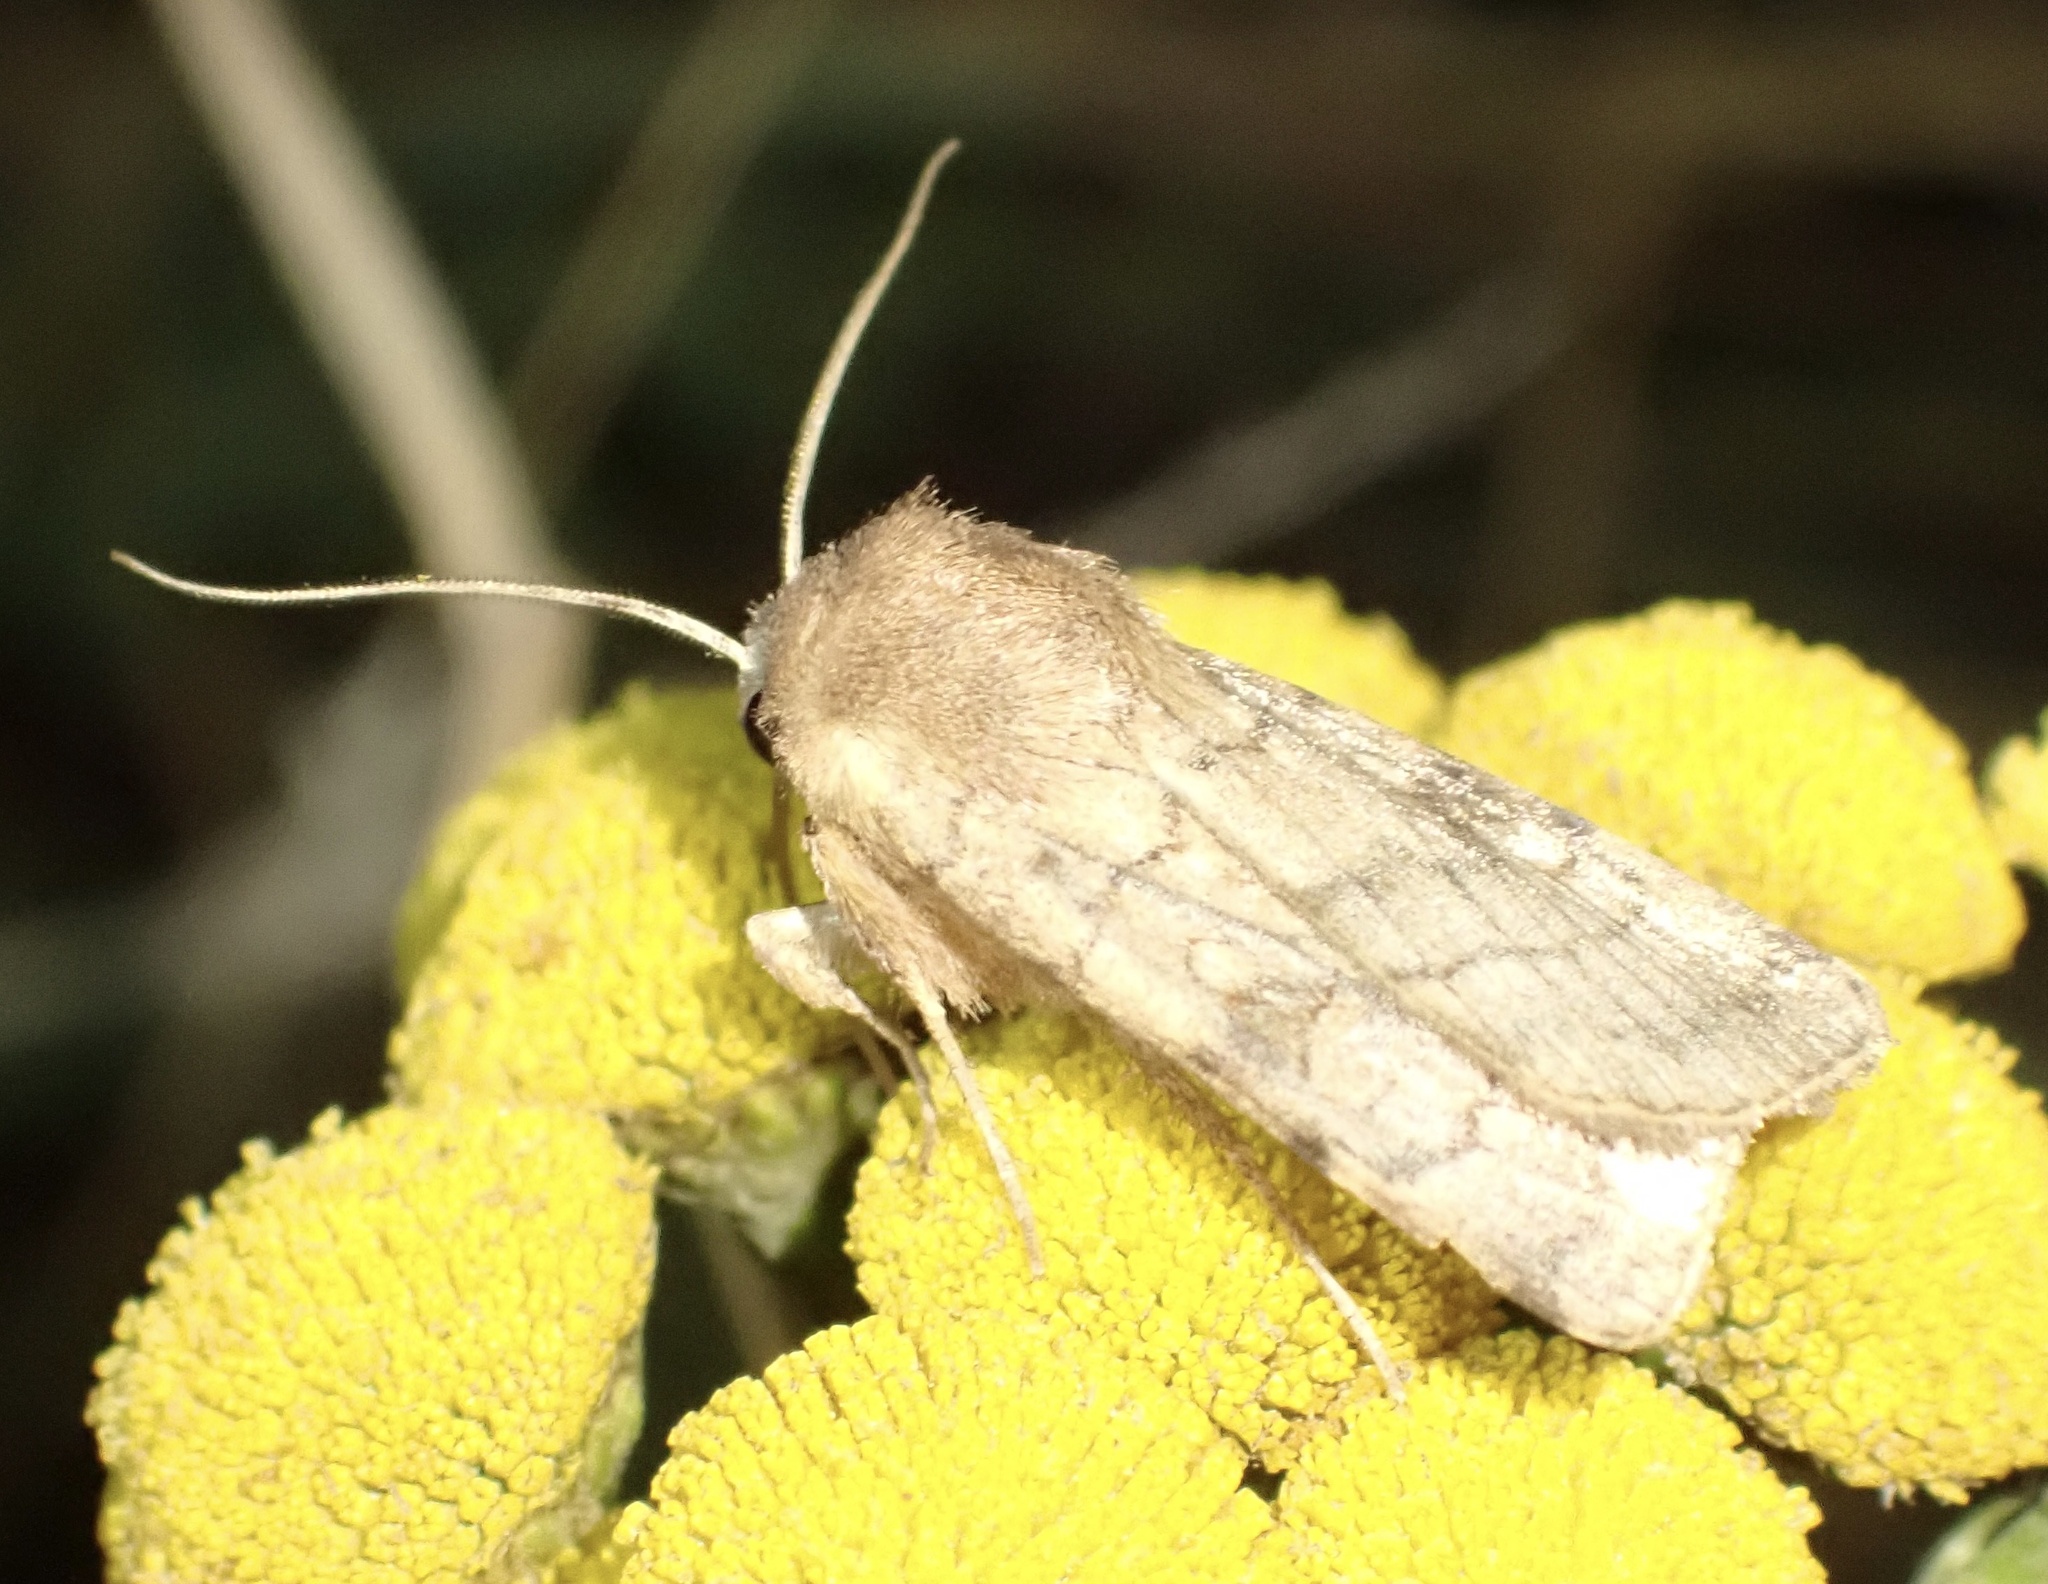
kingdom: Animalia
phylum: Arthropoda
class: Insecta
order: Lepidoptera
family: Noctuidae
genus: Xestia
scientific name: Xestia sexstrigata
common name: Six-striped rustic
